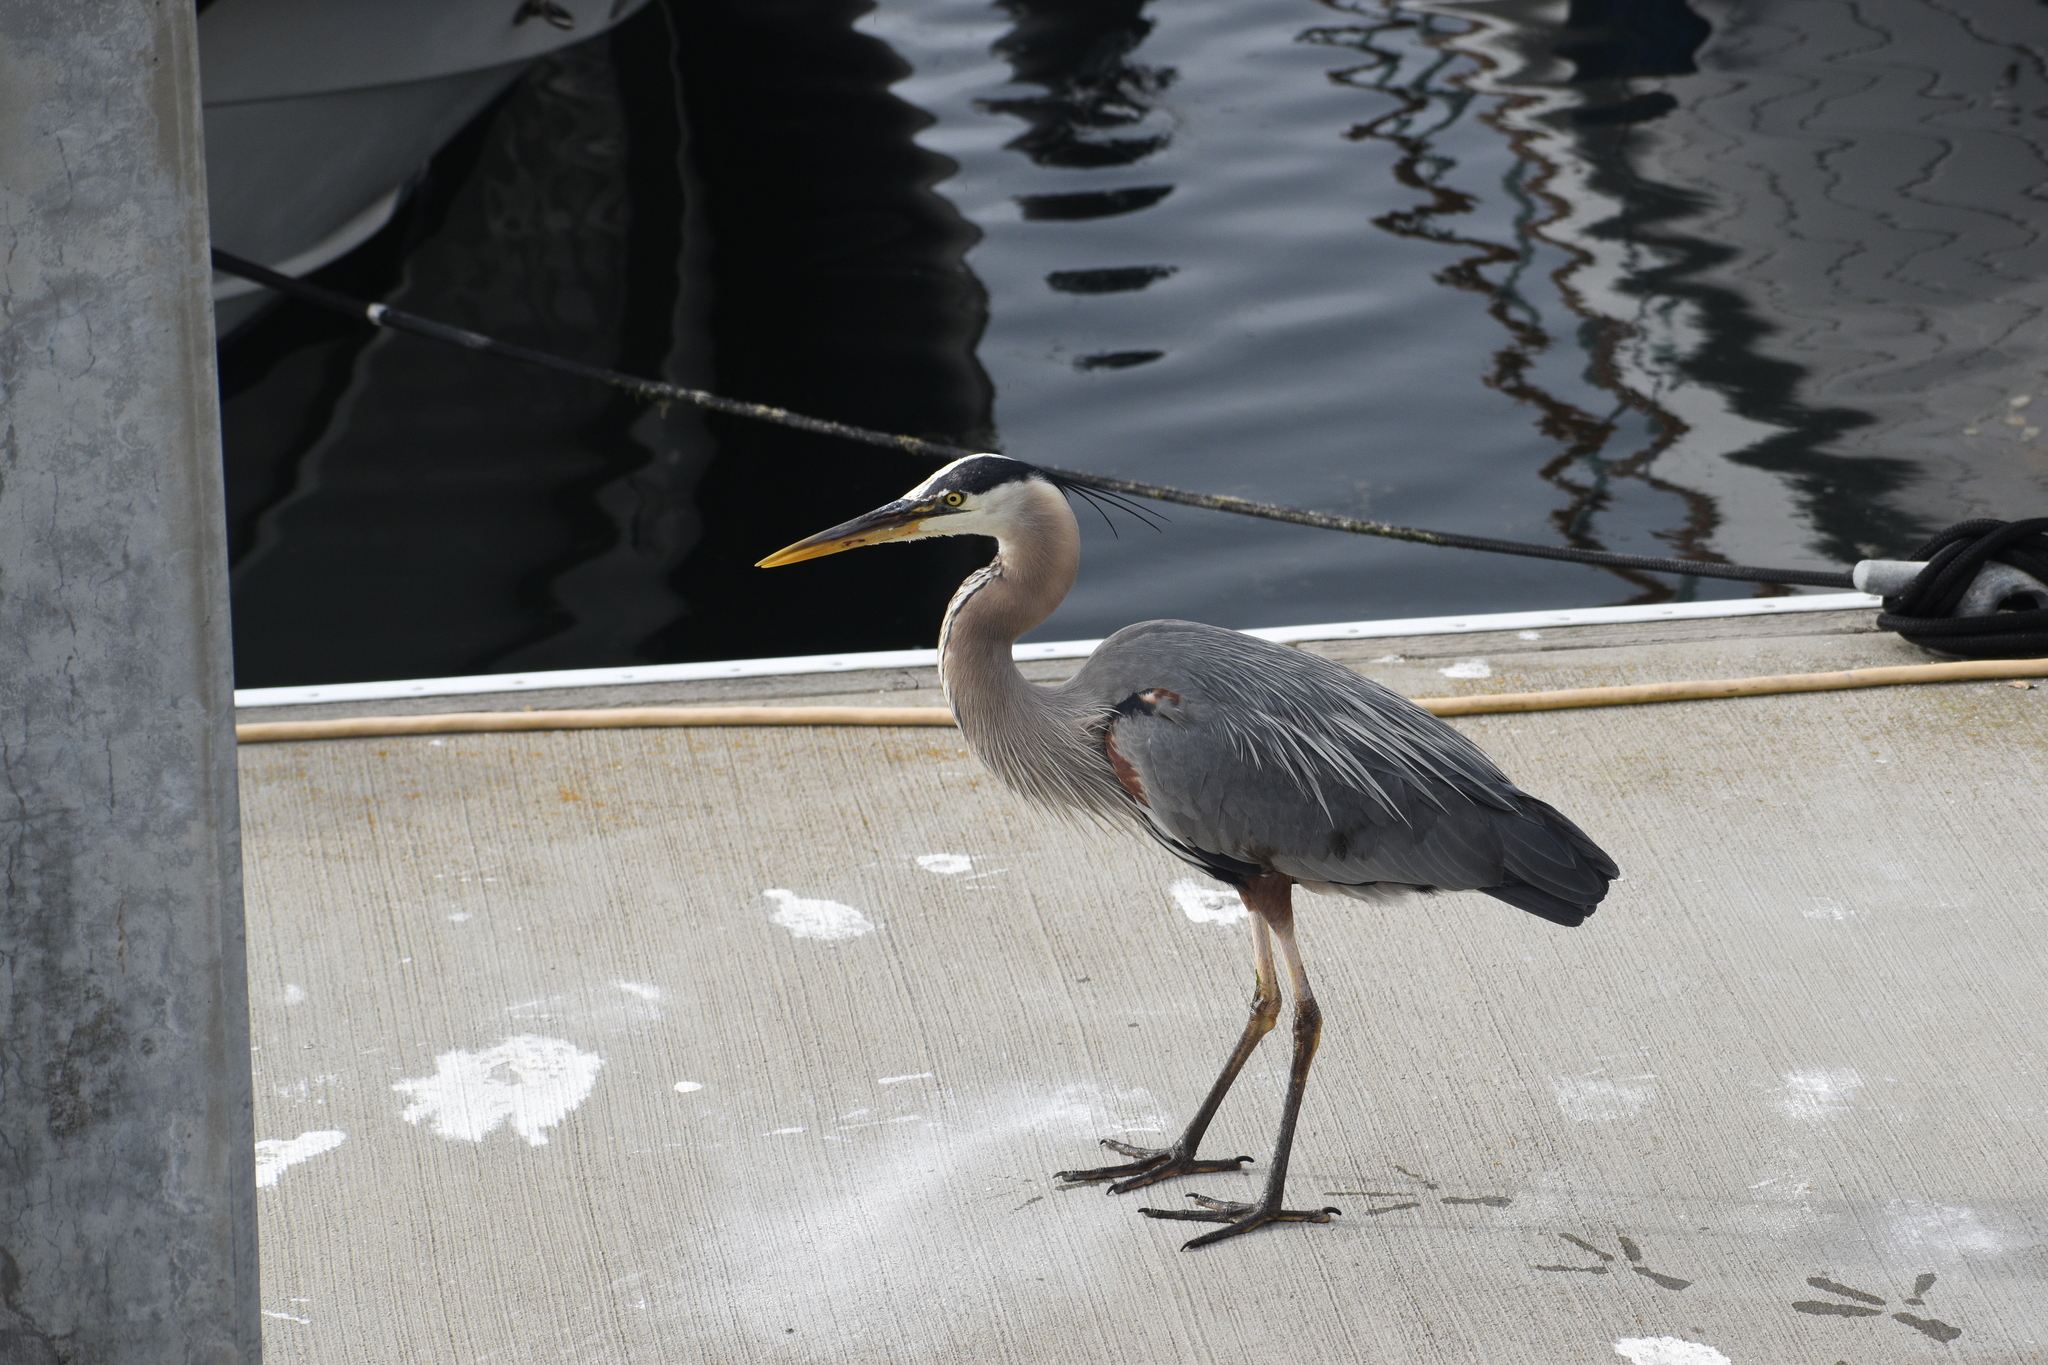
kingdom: Animalia
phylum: Chordata
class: Aves
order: Pelecaniformes
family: Ardeidae
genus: Ardea
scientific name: Ardea herodias
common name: Great blue heron
